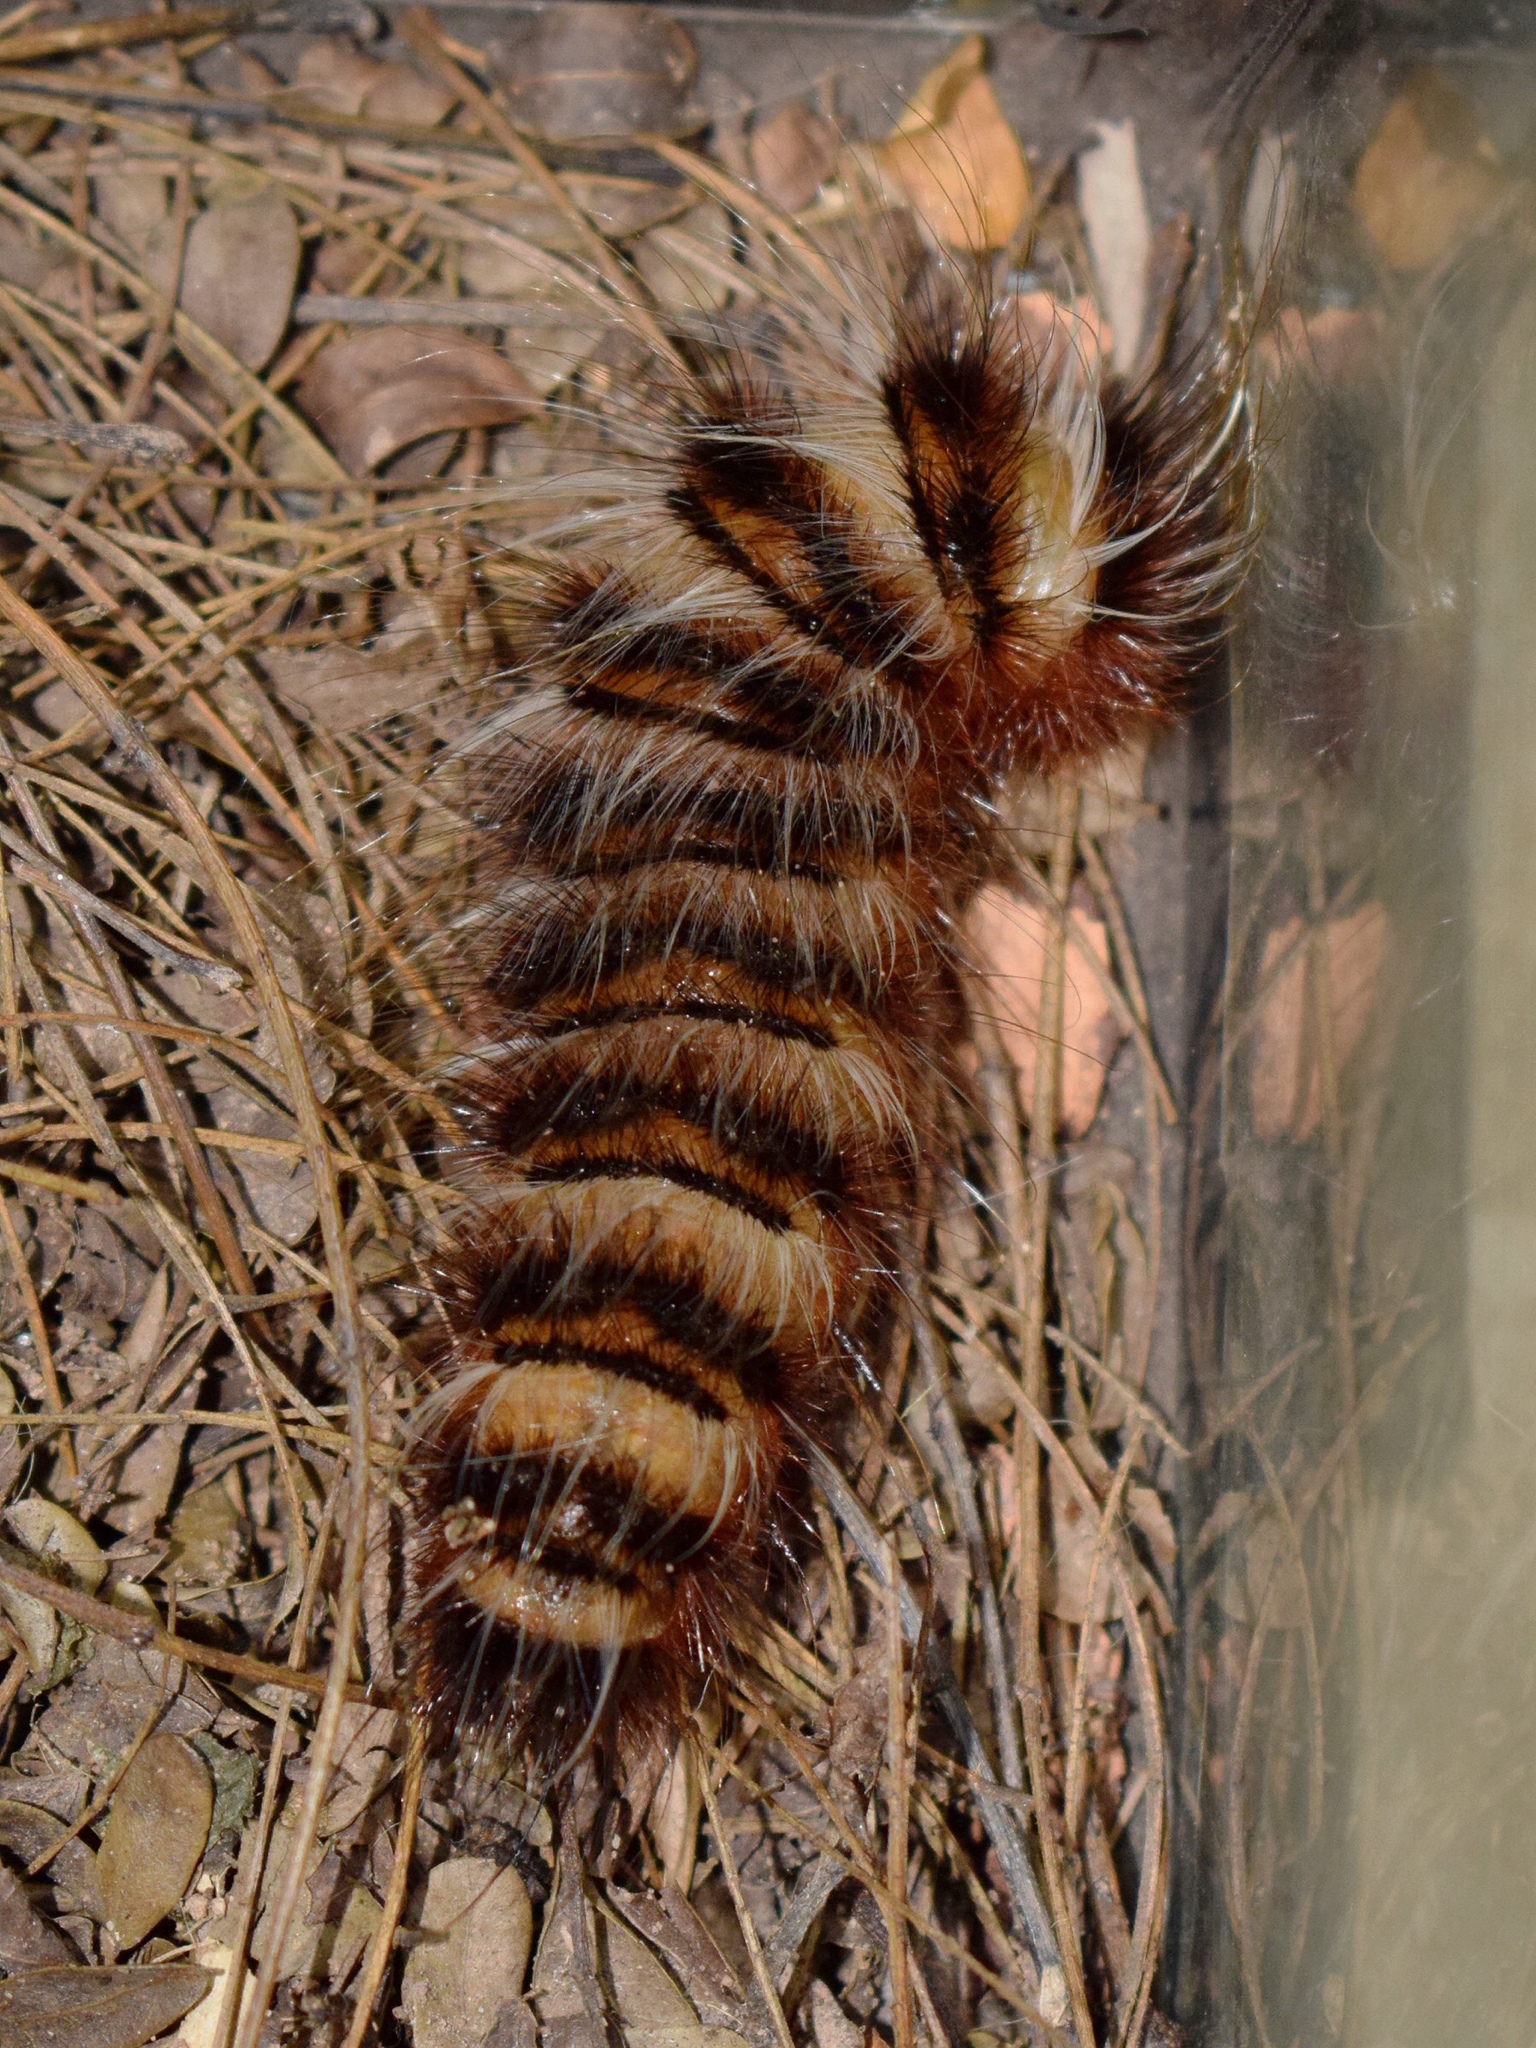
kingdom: Animalia
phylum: Arthropoda
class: Insecta
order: Lepidoptera
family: Eupterotidae
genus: Striphnopteryx
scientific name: Striphnopteryx edulis
